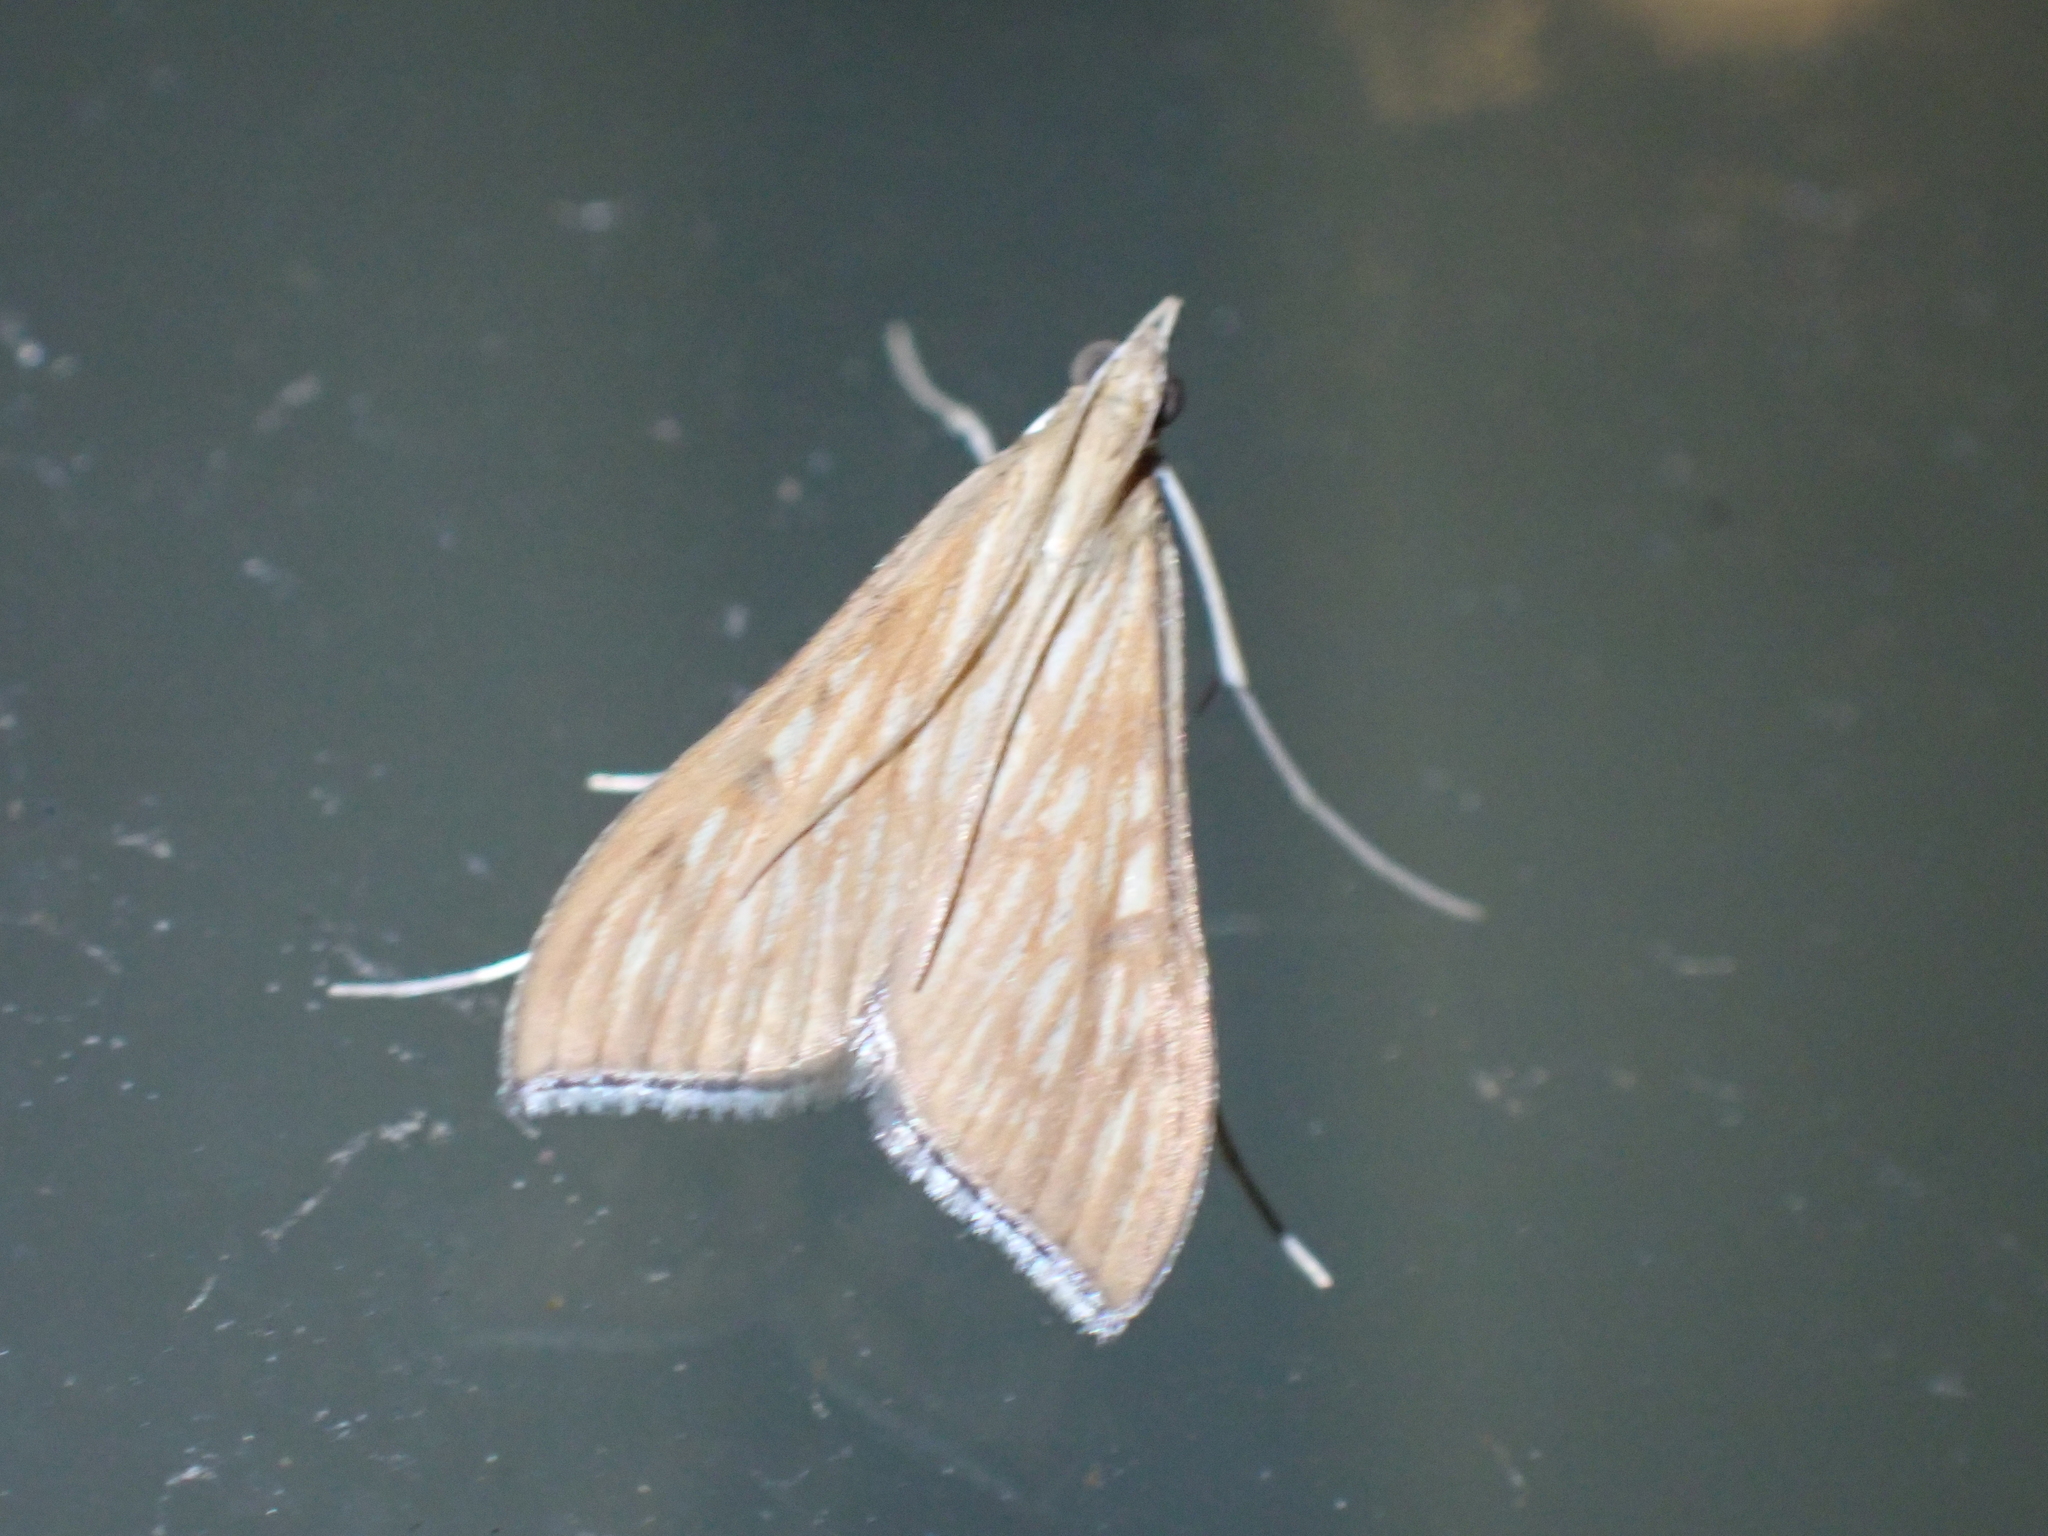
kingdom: Animalia
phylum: Arthropoda
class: Insecta
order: Lepidoptera
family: Crambidae
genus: Antigastra
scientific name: Antigastra catalaunalis
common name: Spanish dot
